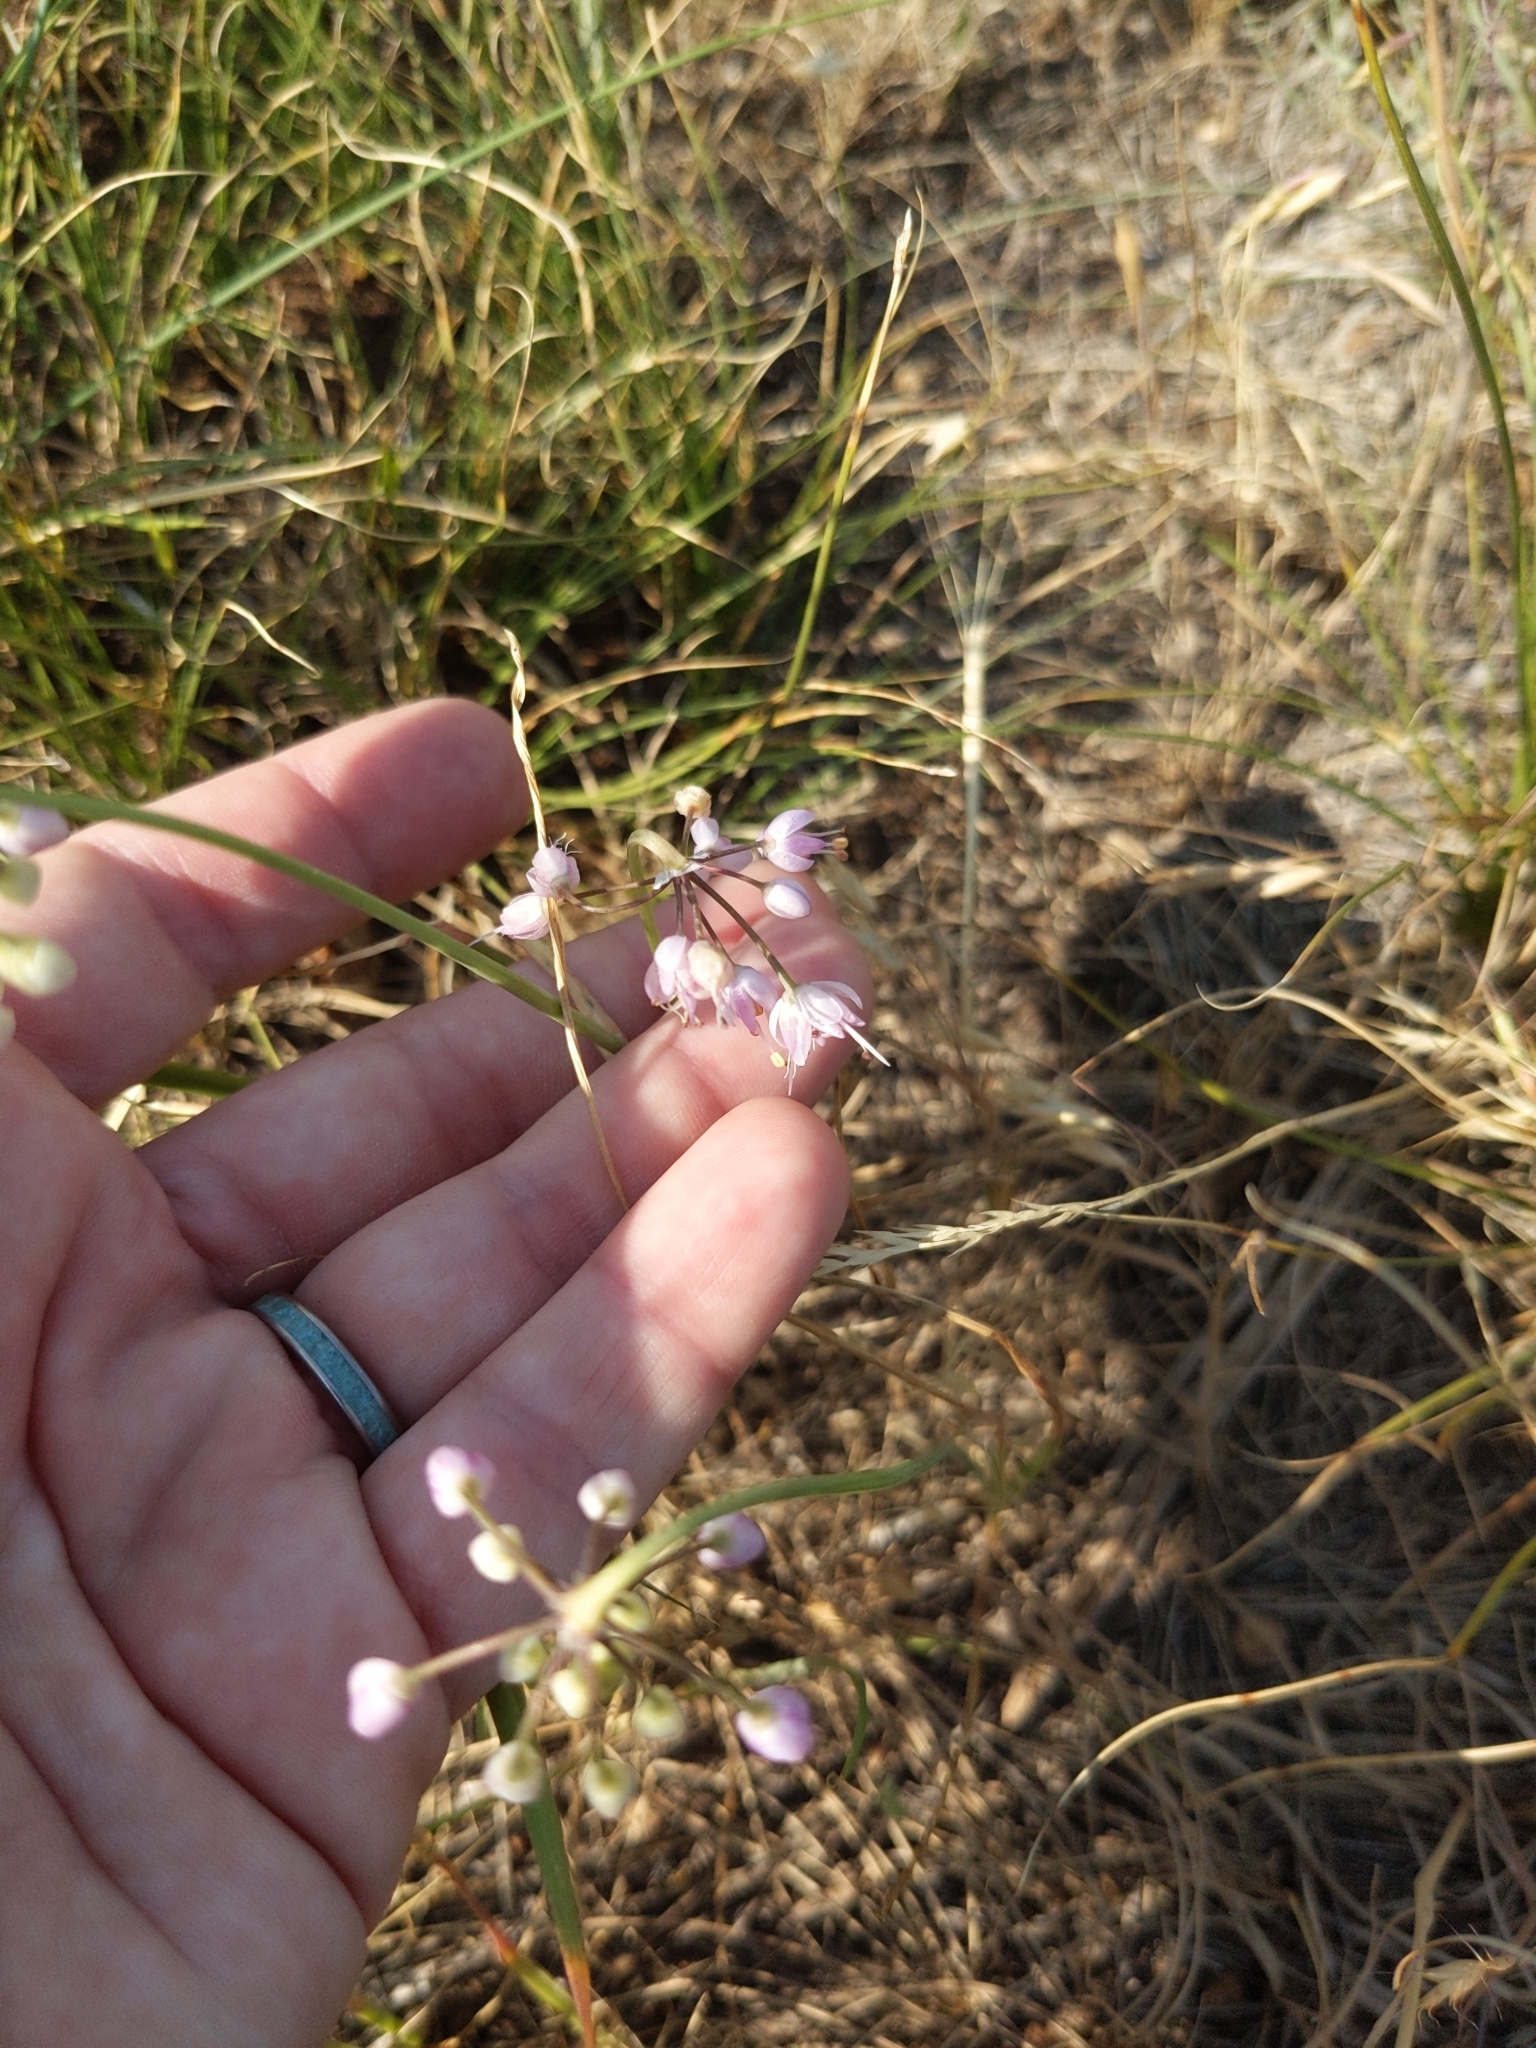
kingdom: Plantae
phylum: Tracheophyta
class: Liliopsida
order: Asparagales
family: Amaryllidaceae
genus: Allium
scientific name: Allium cernuum
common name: Nodding onion
